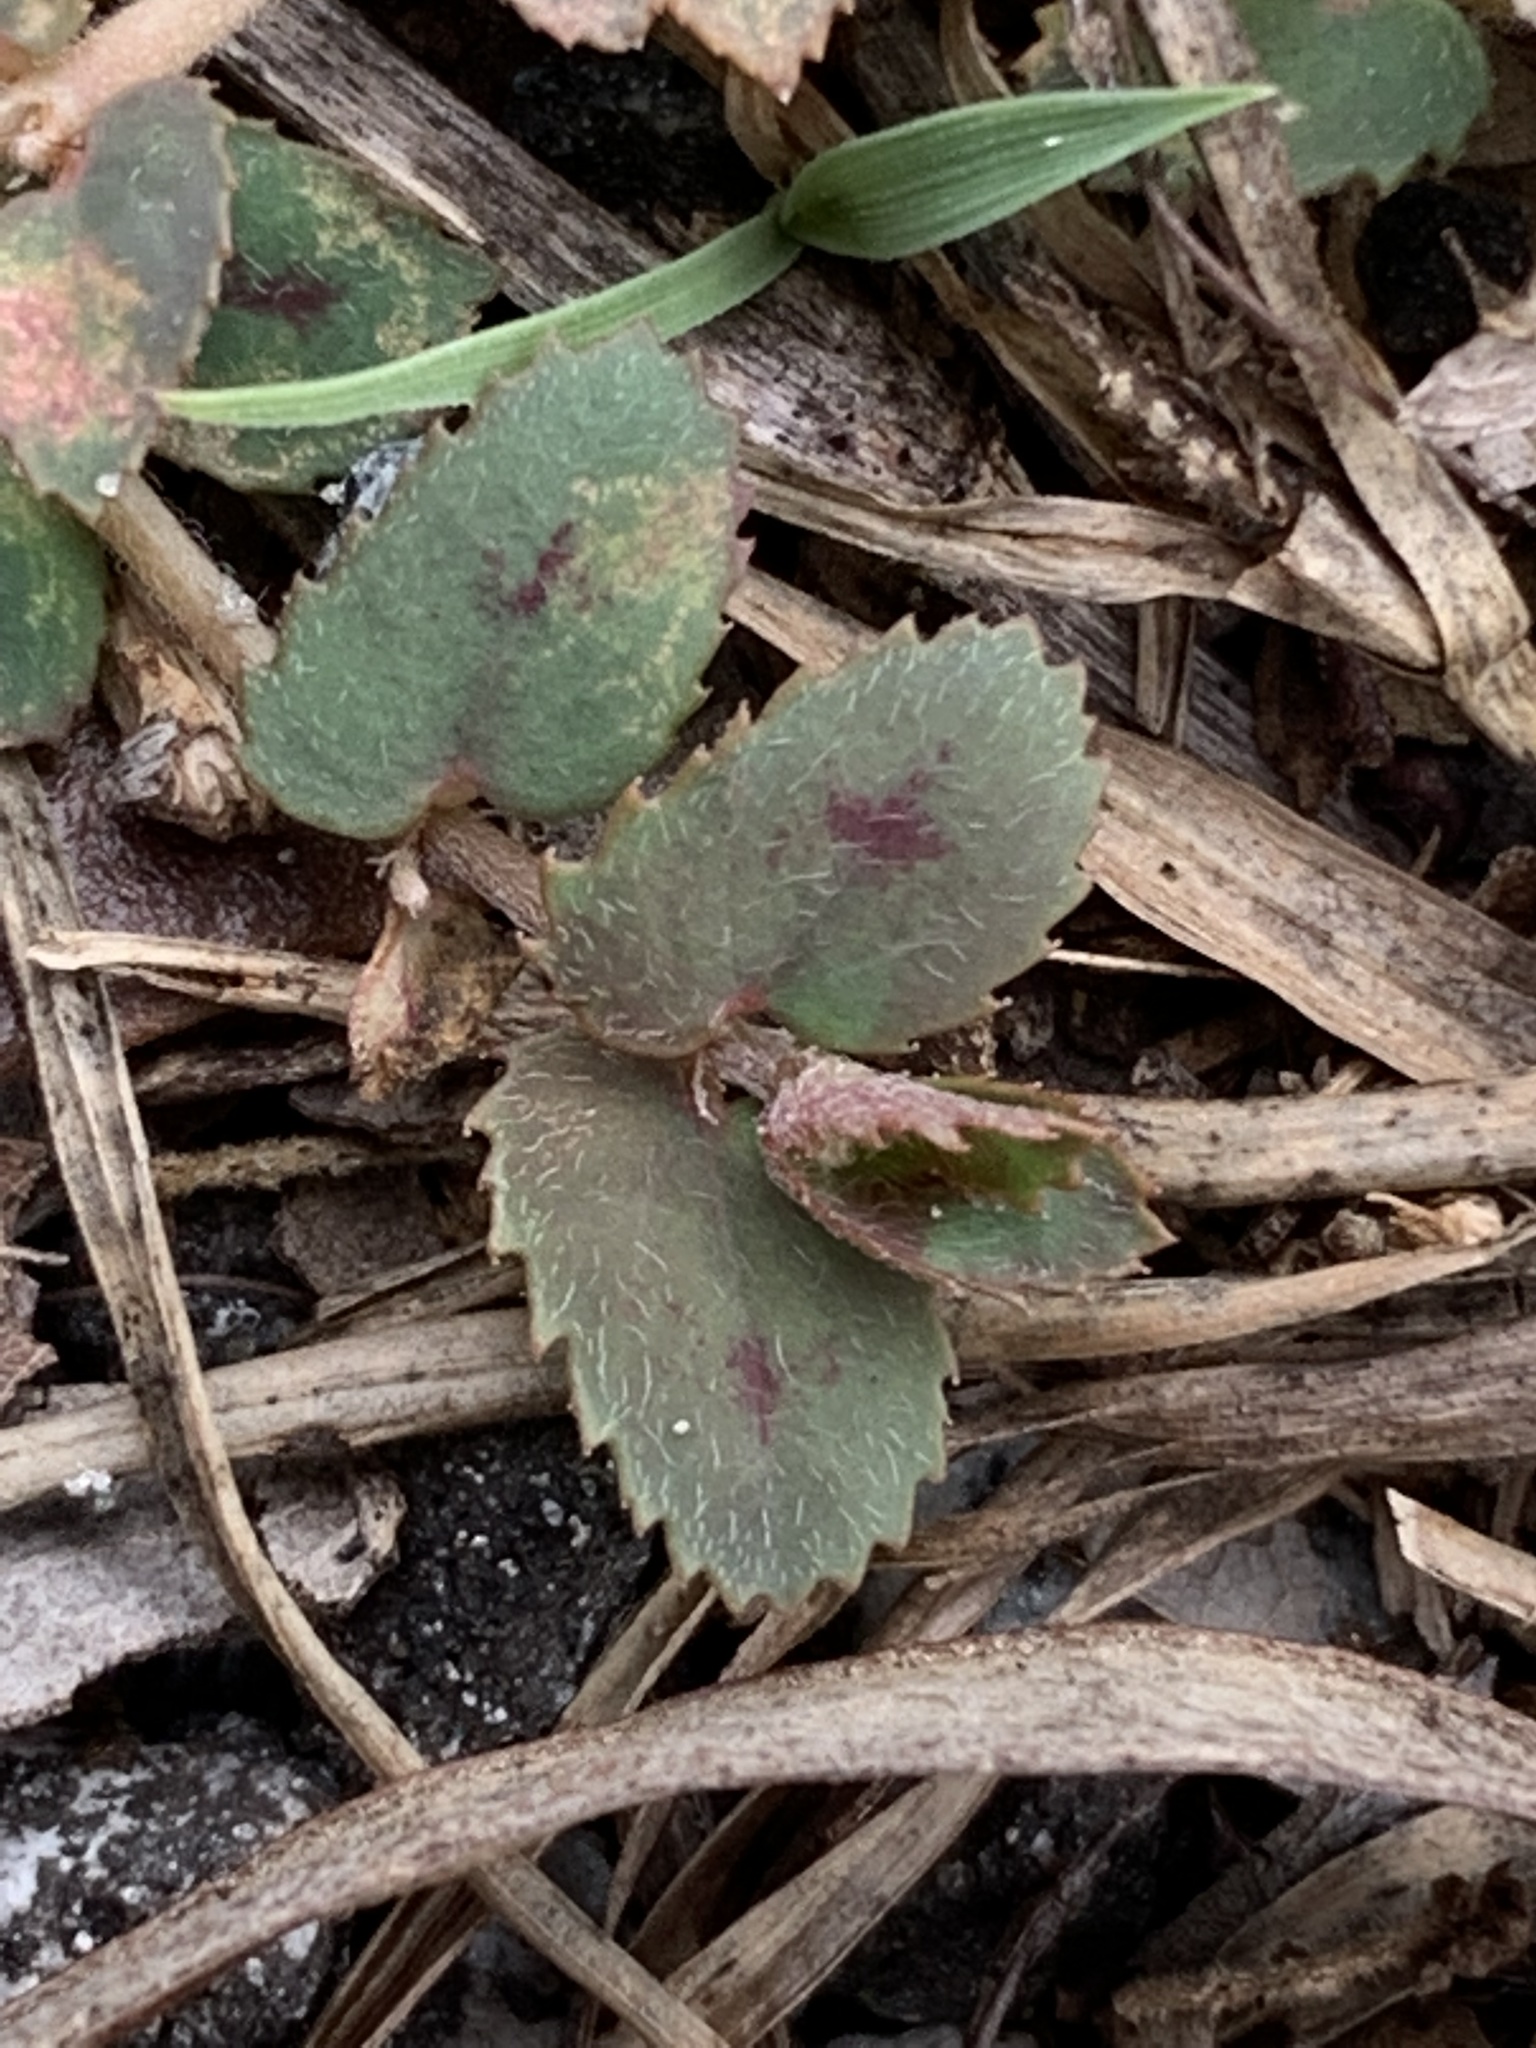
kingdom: Plantae
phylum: Tracheophyta
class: Magnoliopsida
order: Malpighiales
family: Euphorbiaceae
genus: Euphorbia
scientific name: Euphorbia thymifolia
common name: Gulf sandmat
